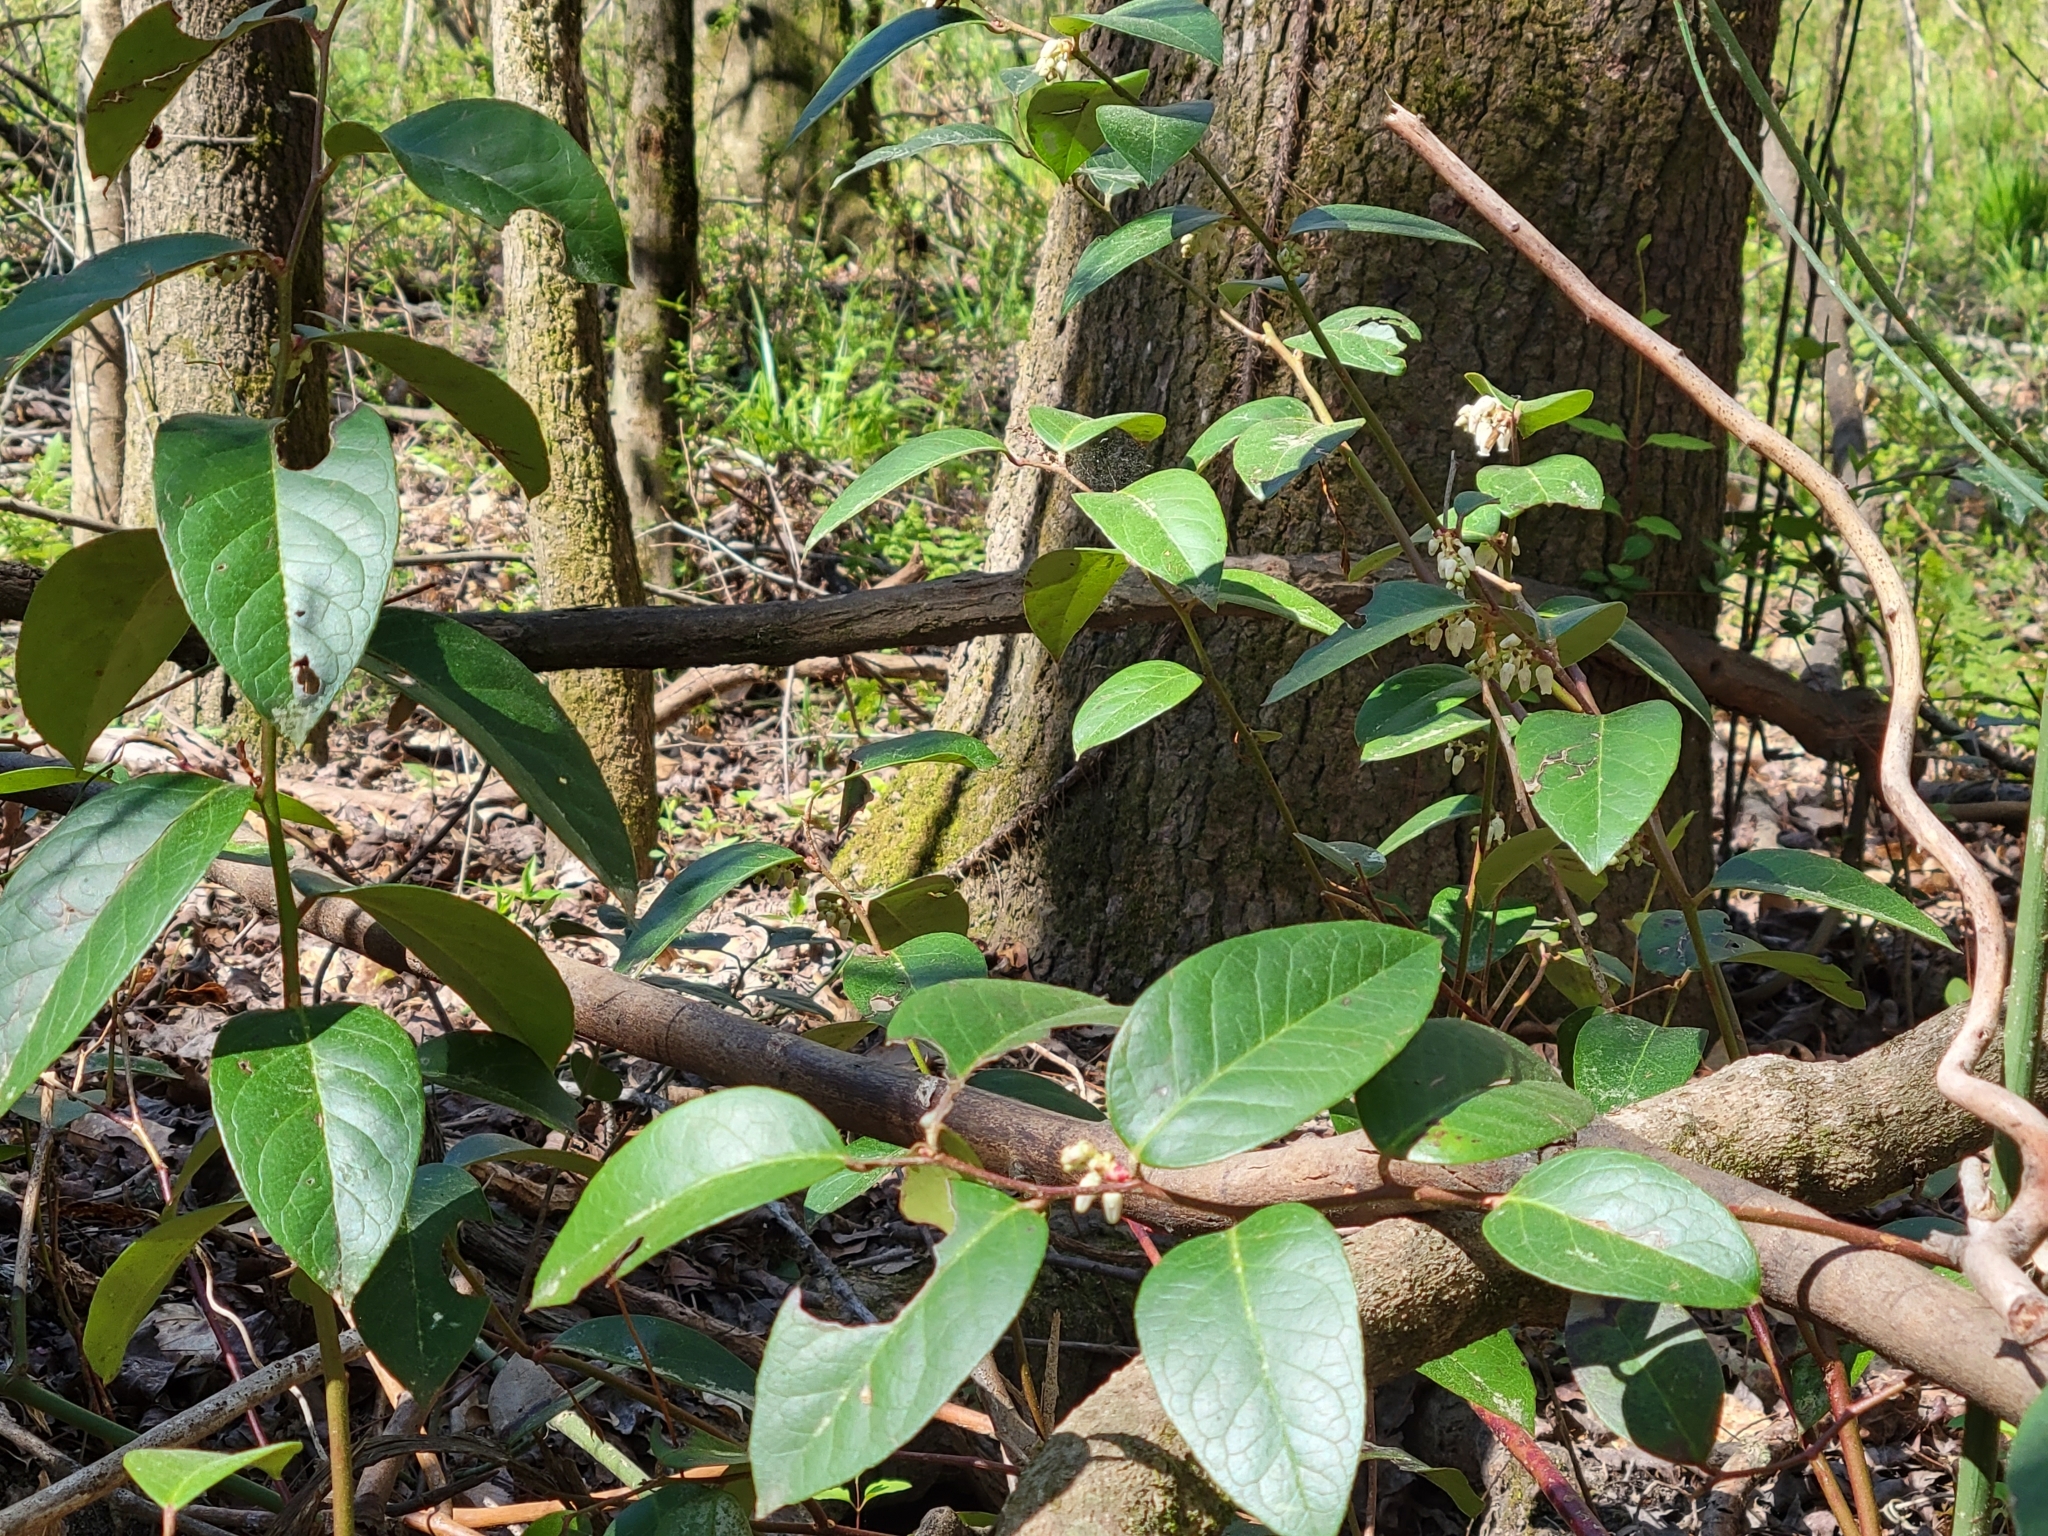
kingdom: Plantae
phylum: Tracheophyta
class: Magnoliopsida
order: Ericales
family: Ericaceae
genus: Leucothoe
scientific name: Leucothoe axillaris
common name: Leucothoe
